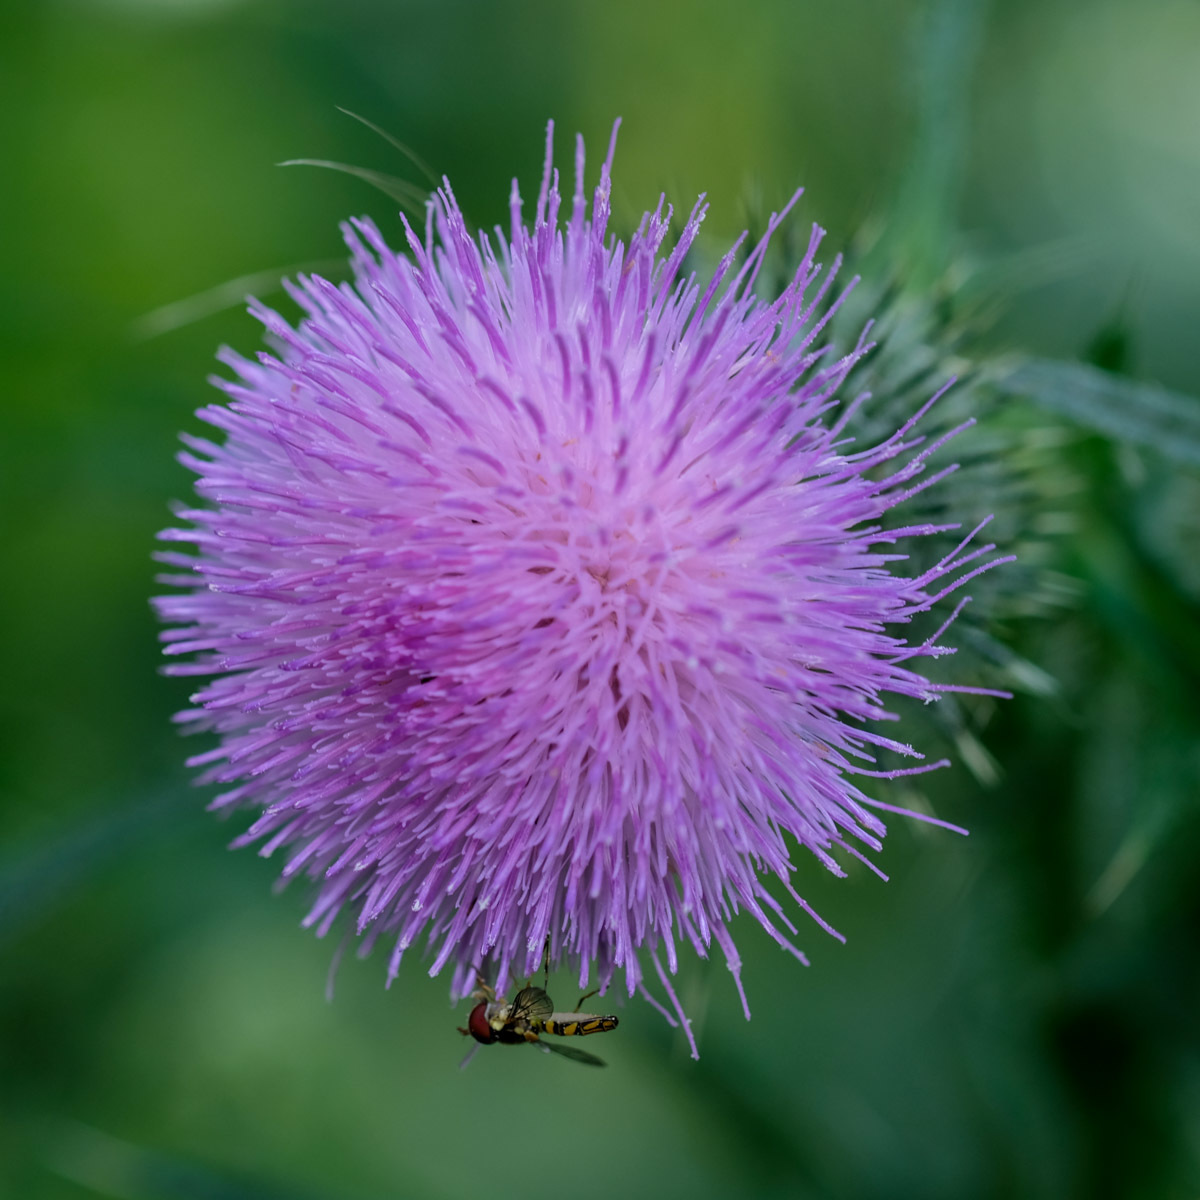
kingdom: Plantae
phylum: Tracheophyta
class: Magnoliopsida
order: Asterales
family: Asteraceae
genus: Cirsium
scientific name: Cirsium vulgare
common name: Bull thistle
